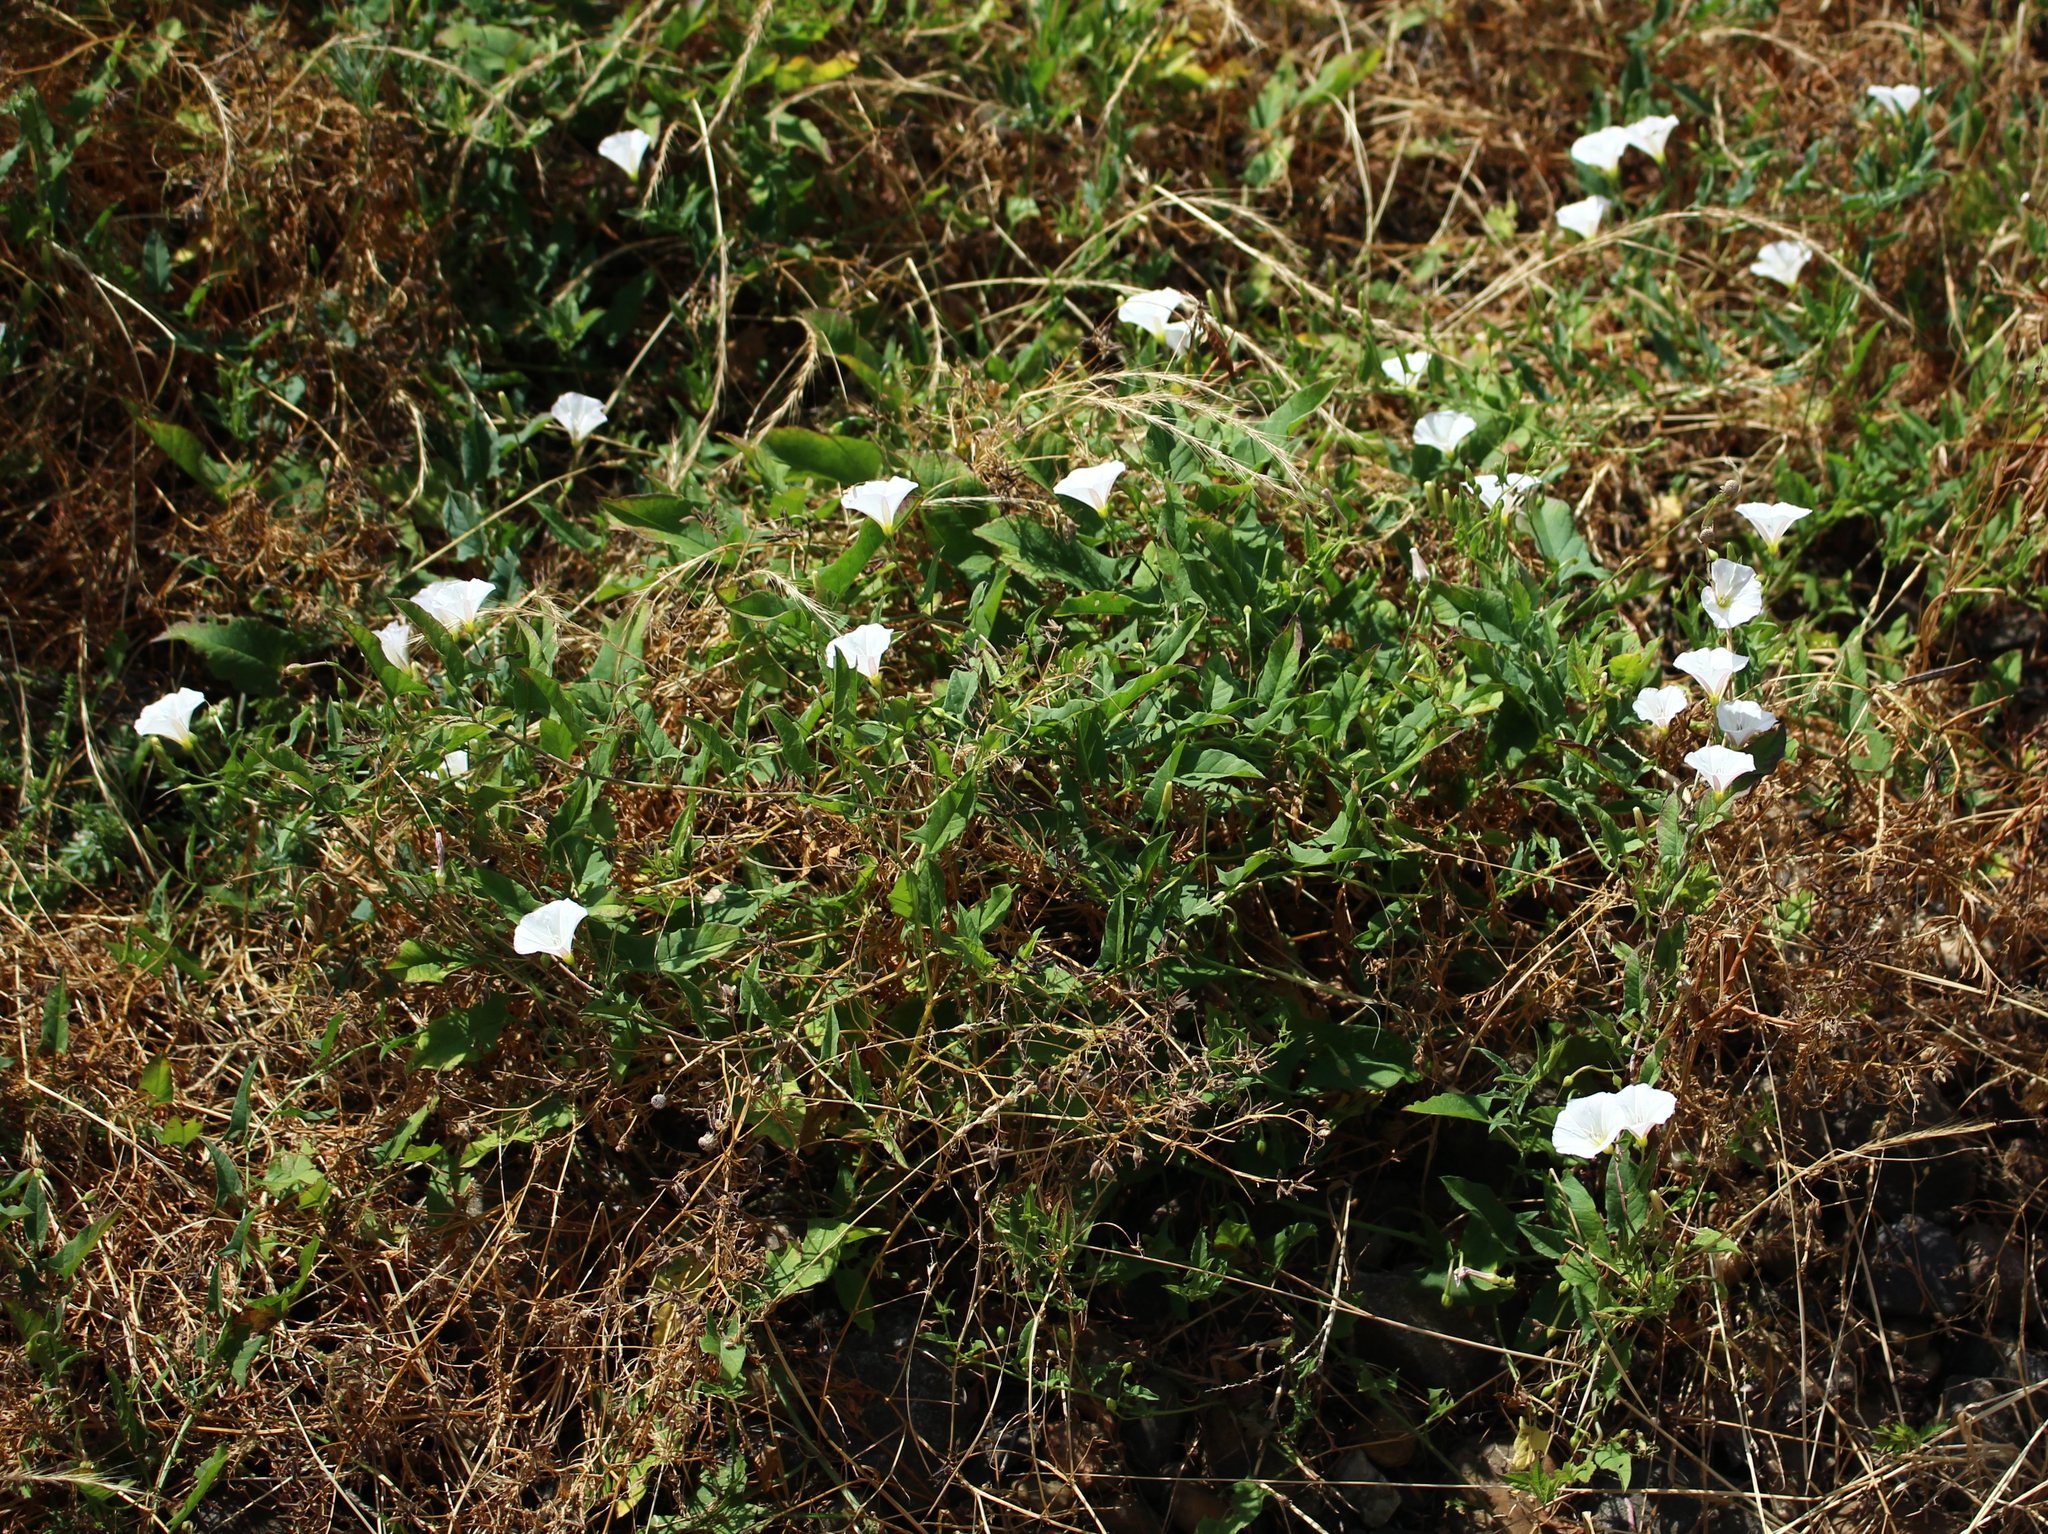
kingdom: Plantae
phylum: Tracheophyta
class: Magnoliopsida
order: Solanales
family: Convolvulaceae
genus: Convolvulus
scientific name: Convolvulus arvensis
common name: Field bindweed
